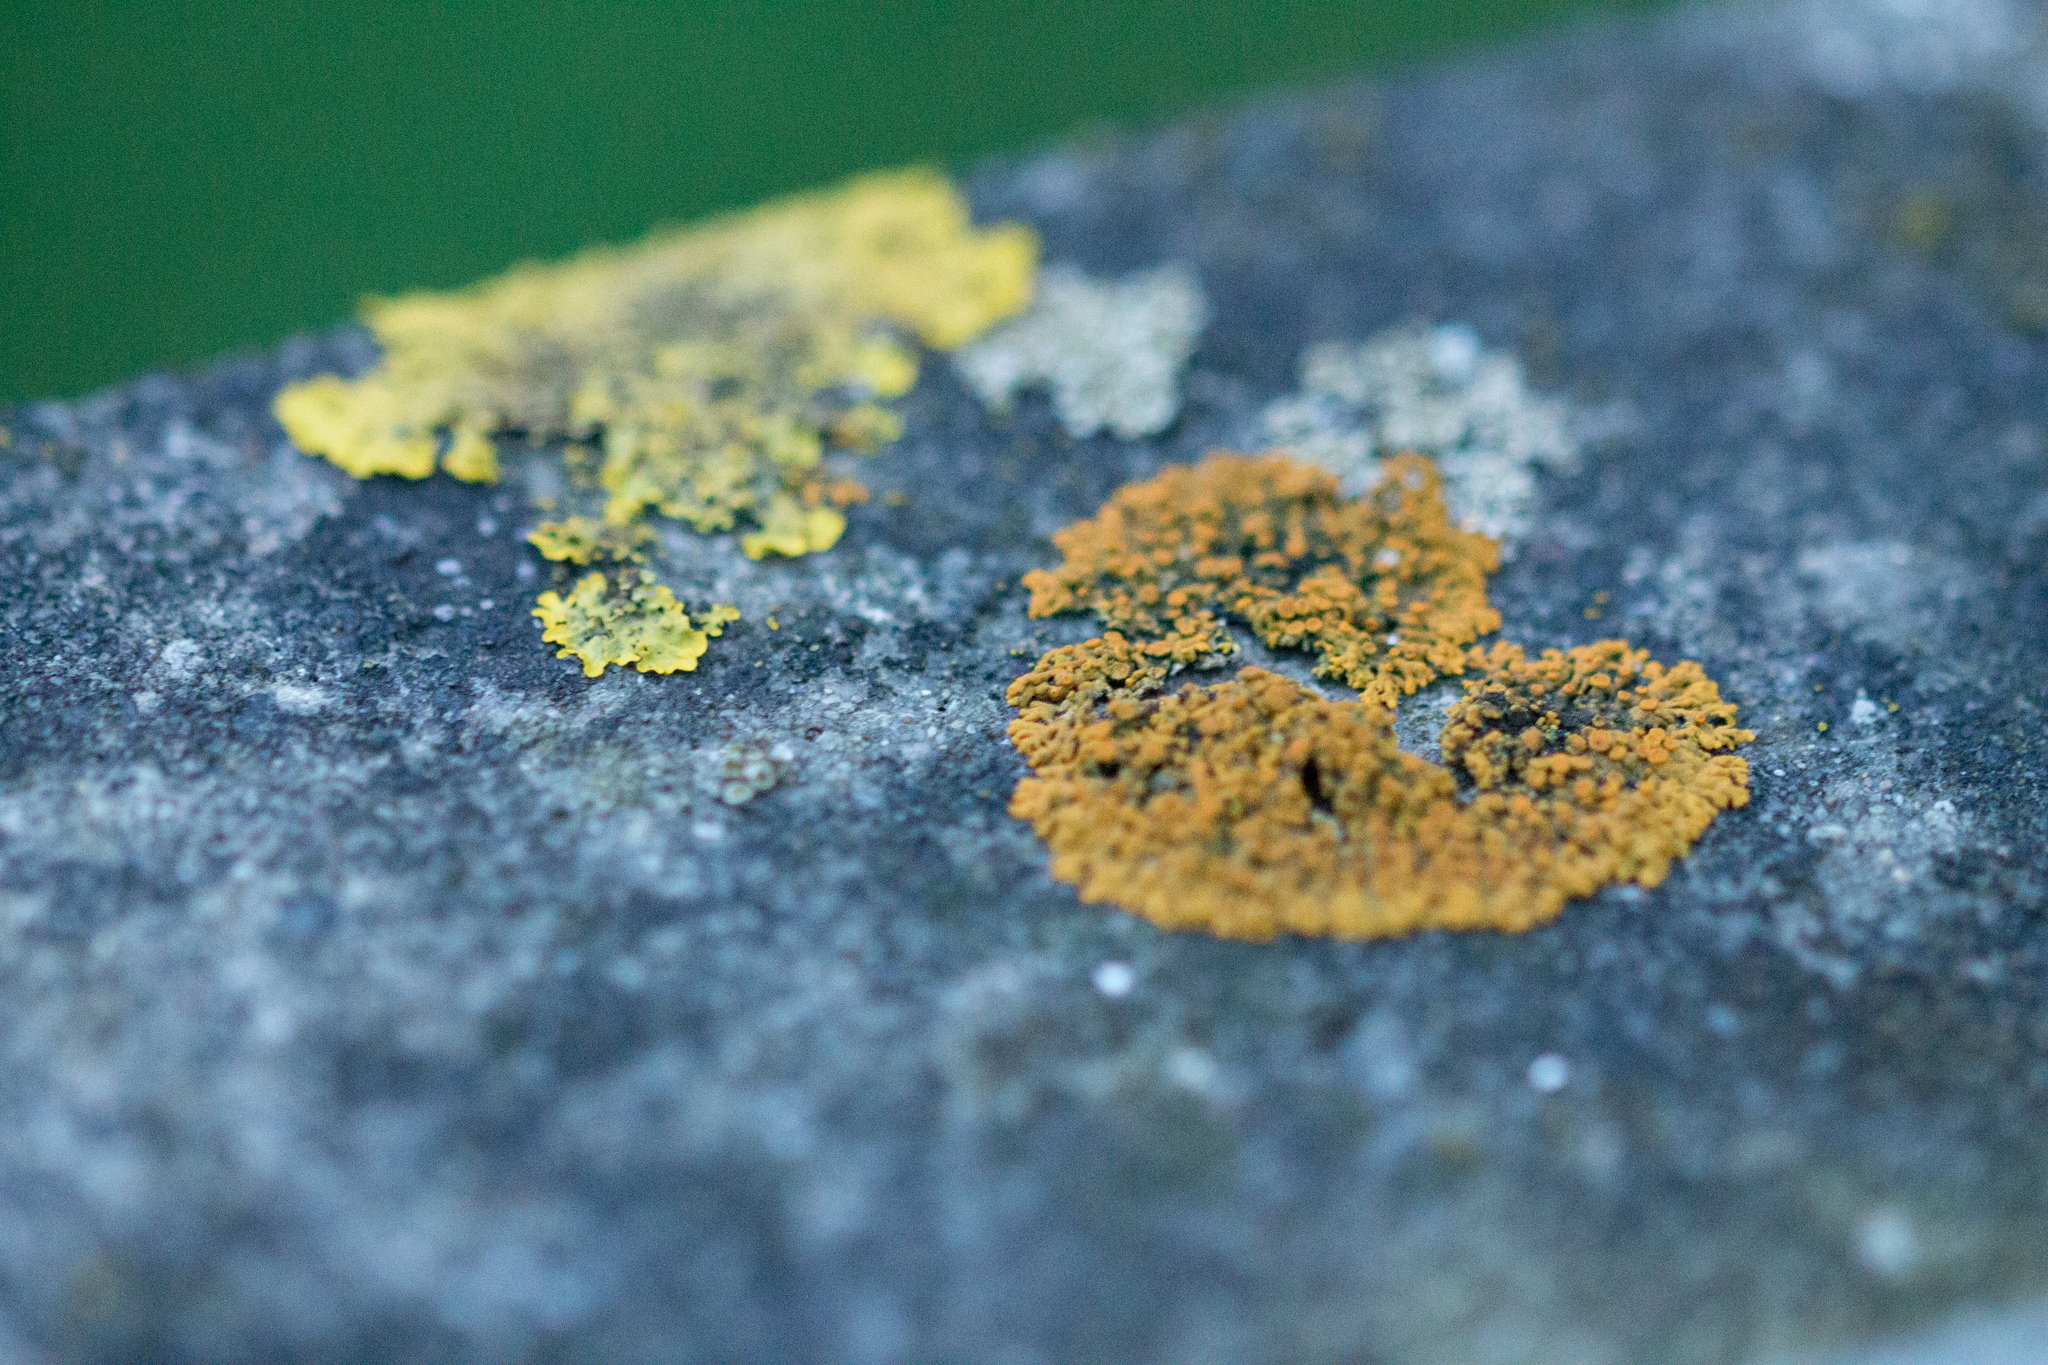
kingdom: Fungi
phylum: Ascomycota
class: Lecanoromycetes
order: Teloschistales
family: Teloschistaceae
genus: Xanthoria
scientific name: Xanthoria elegans
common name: Elegant sunburst lichen
